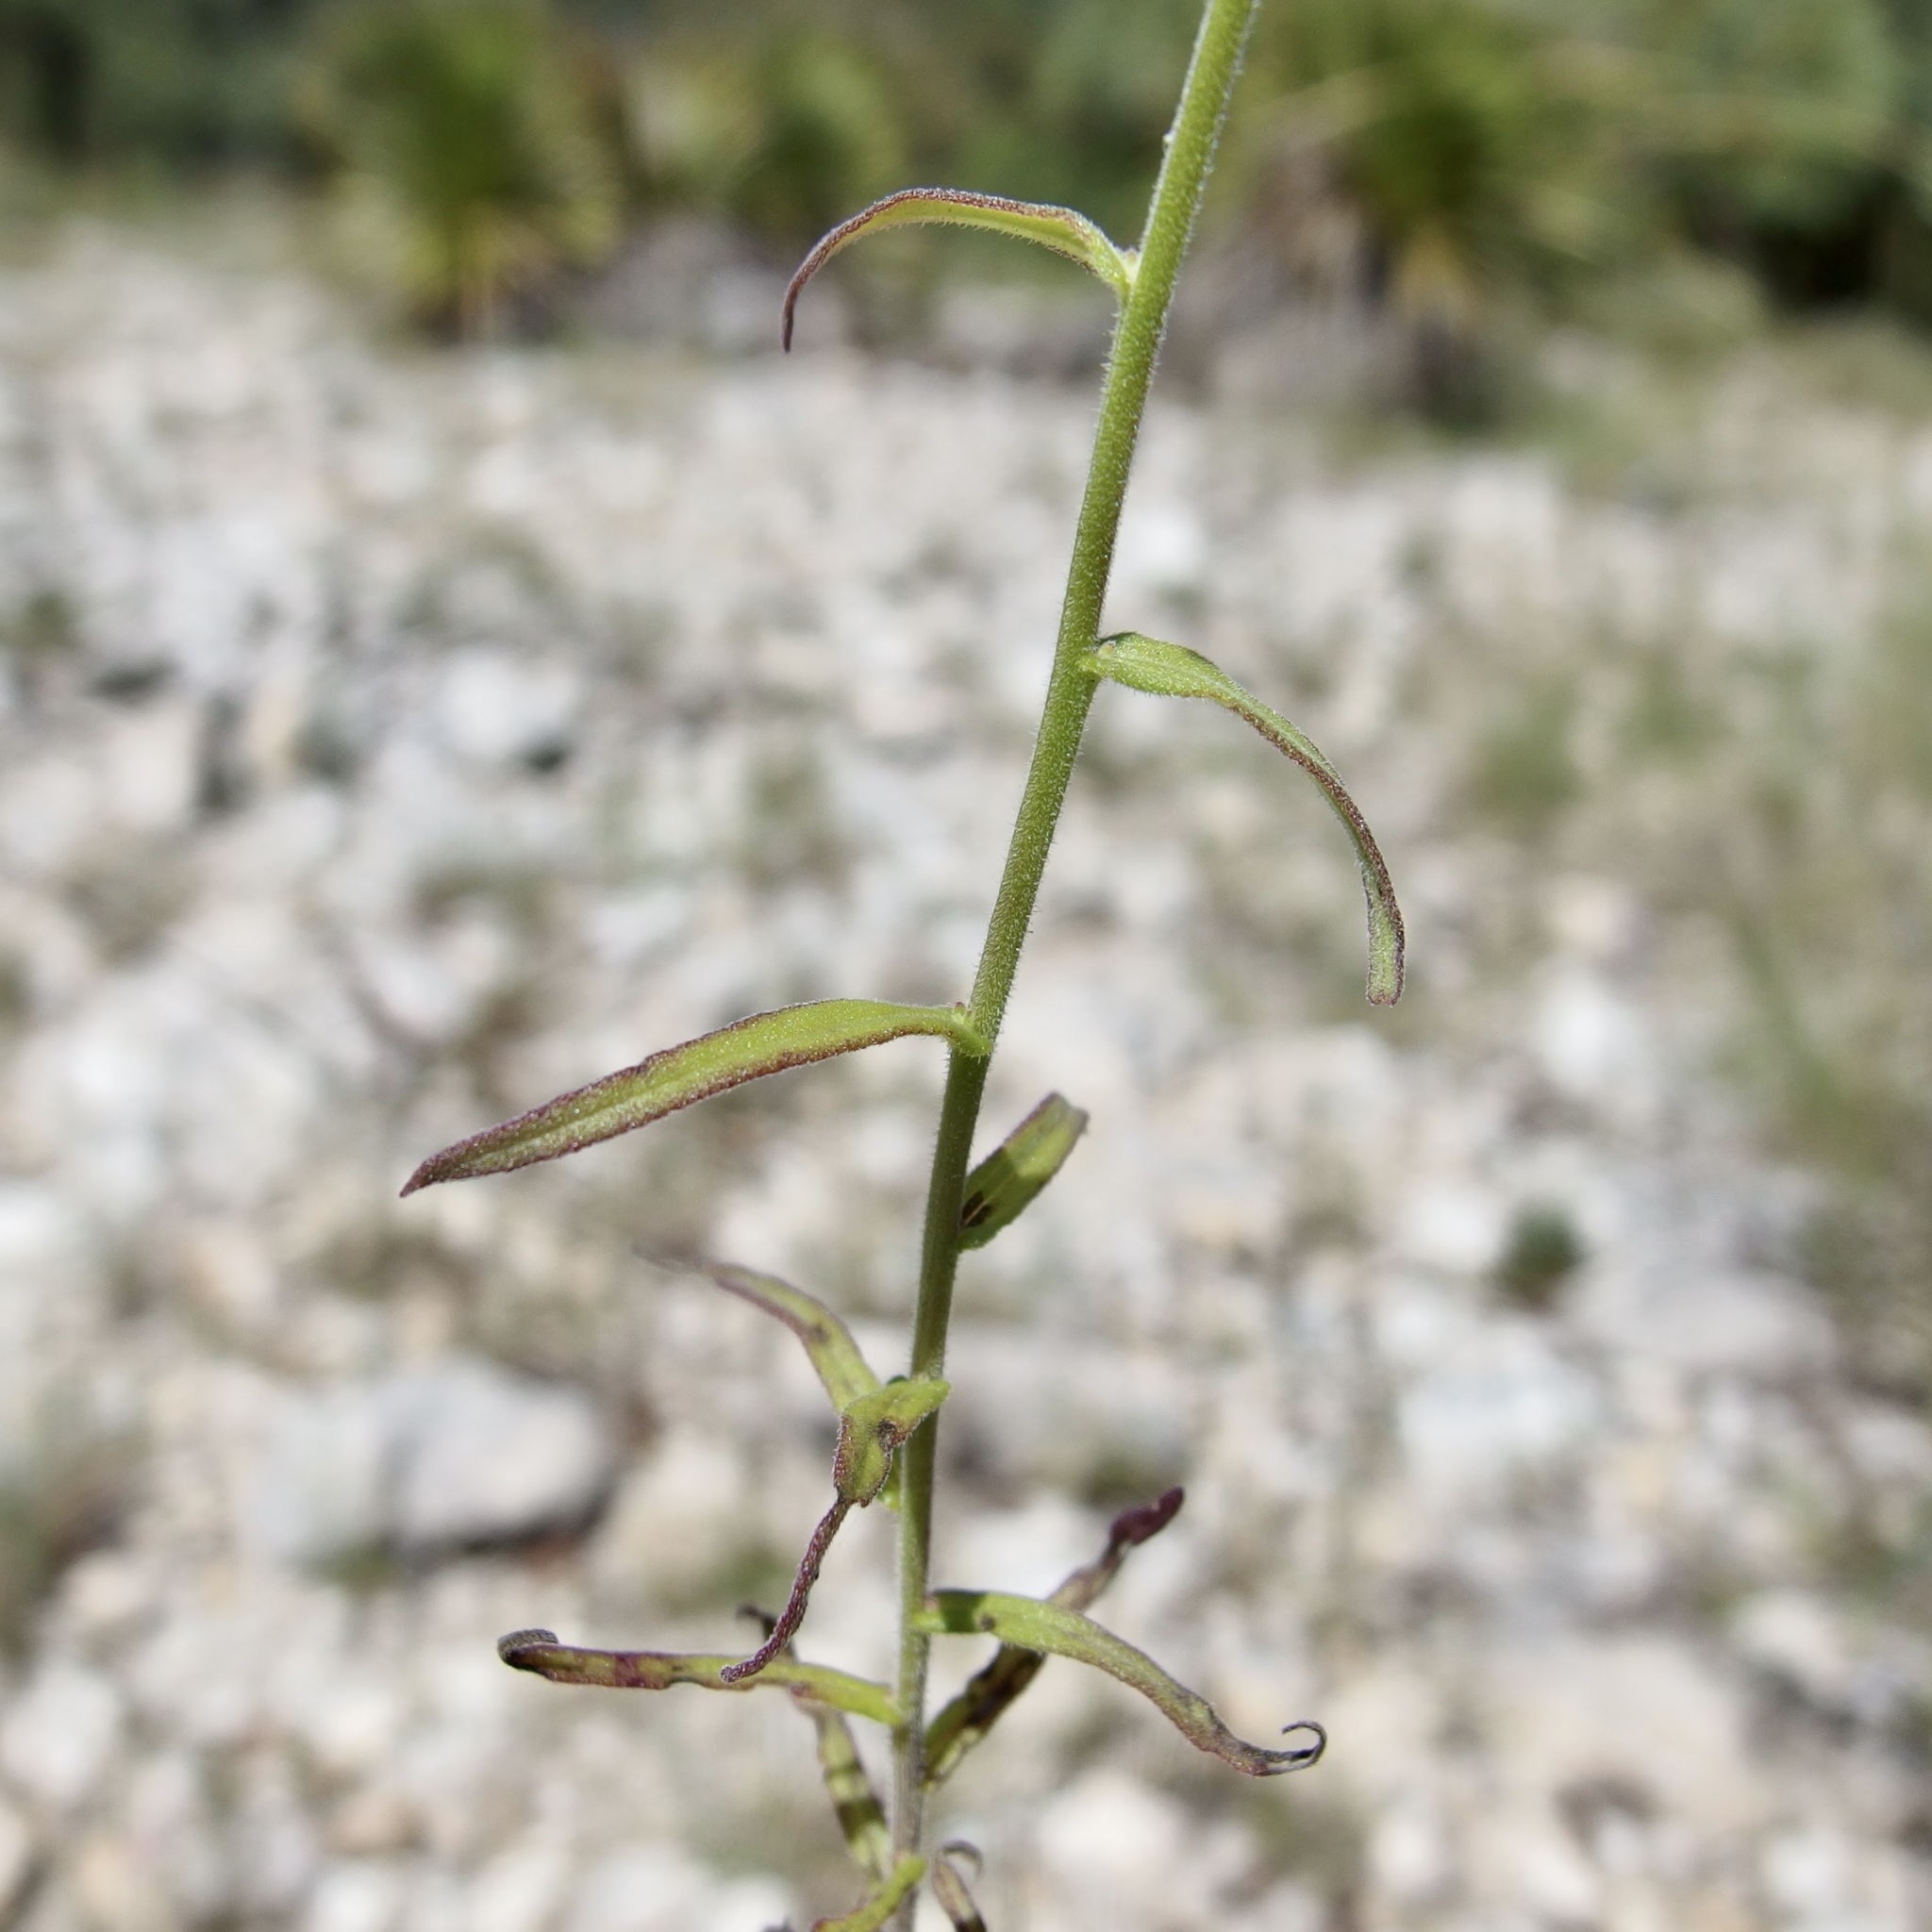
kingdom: Plantae
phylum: Tracheophyta
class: Magnoliopsida
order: Lamiales
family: Orobanchaceae
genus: Castilleja
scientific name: Castilleja tenuiflora
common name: Santa catalina indian paintbrush
